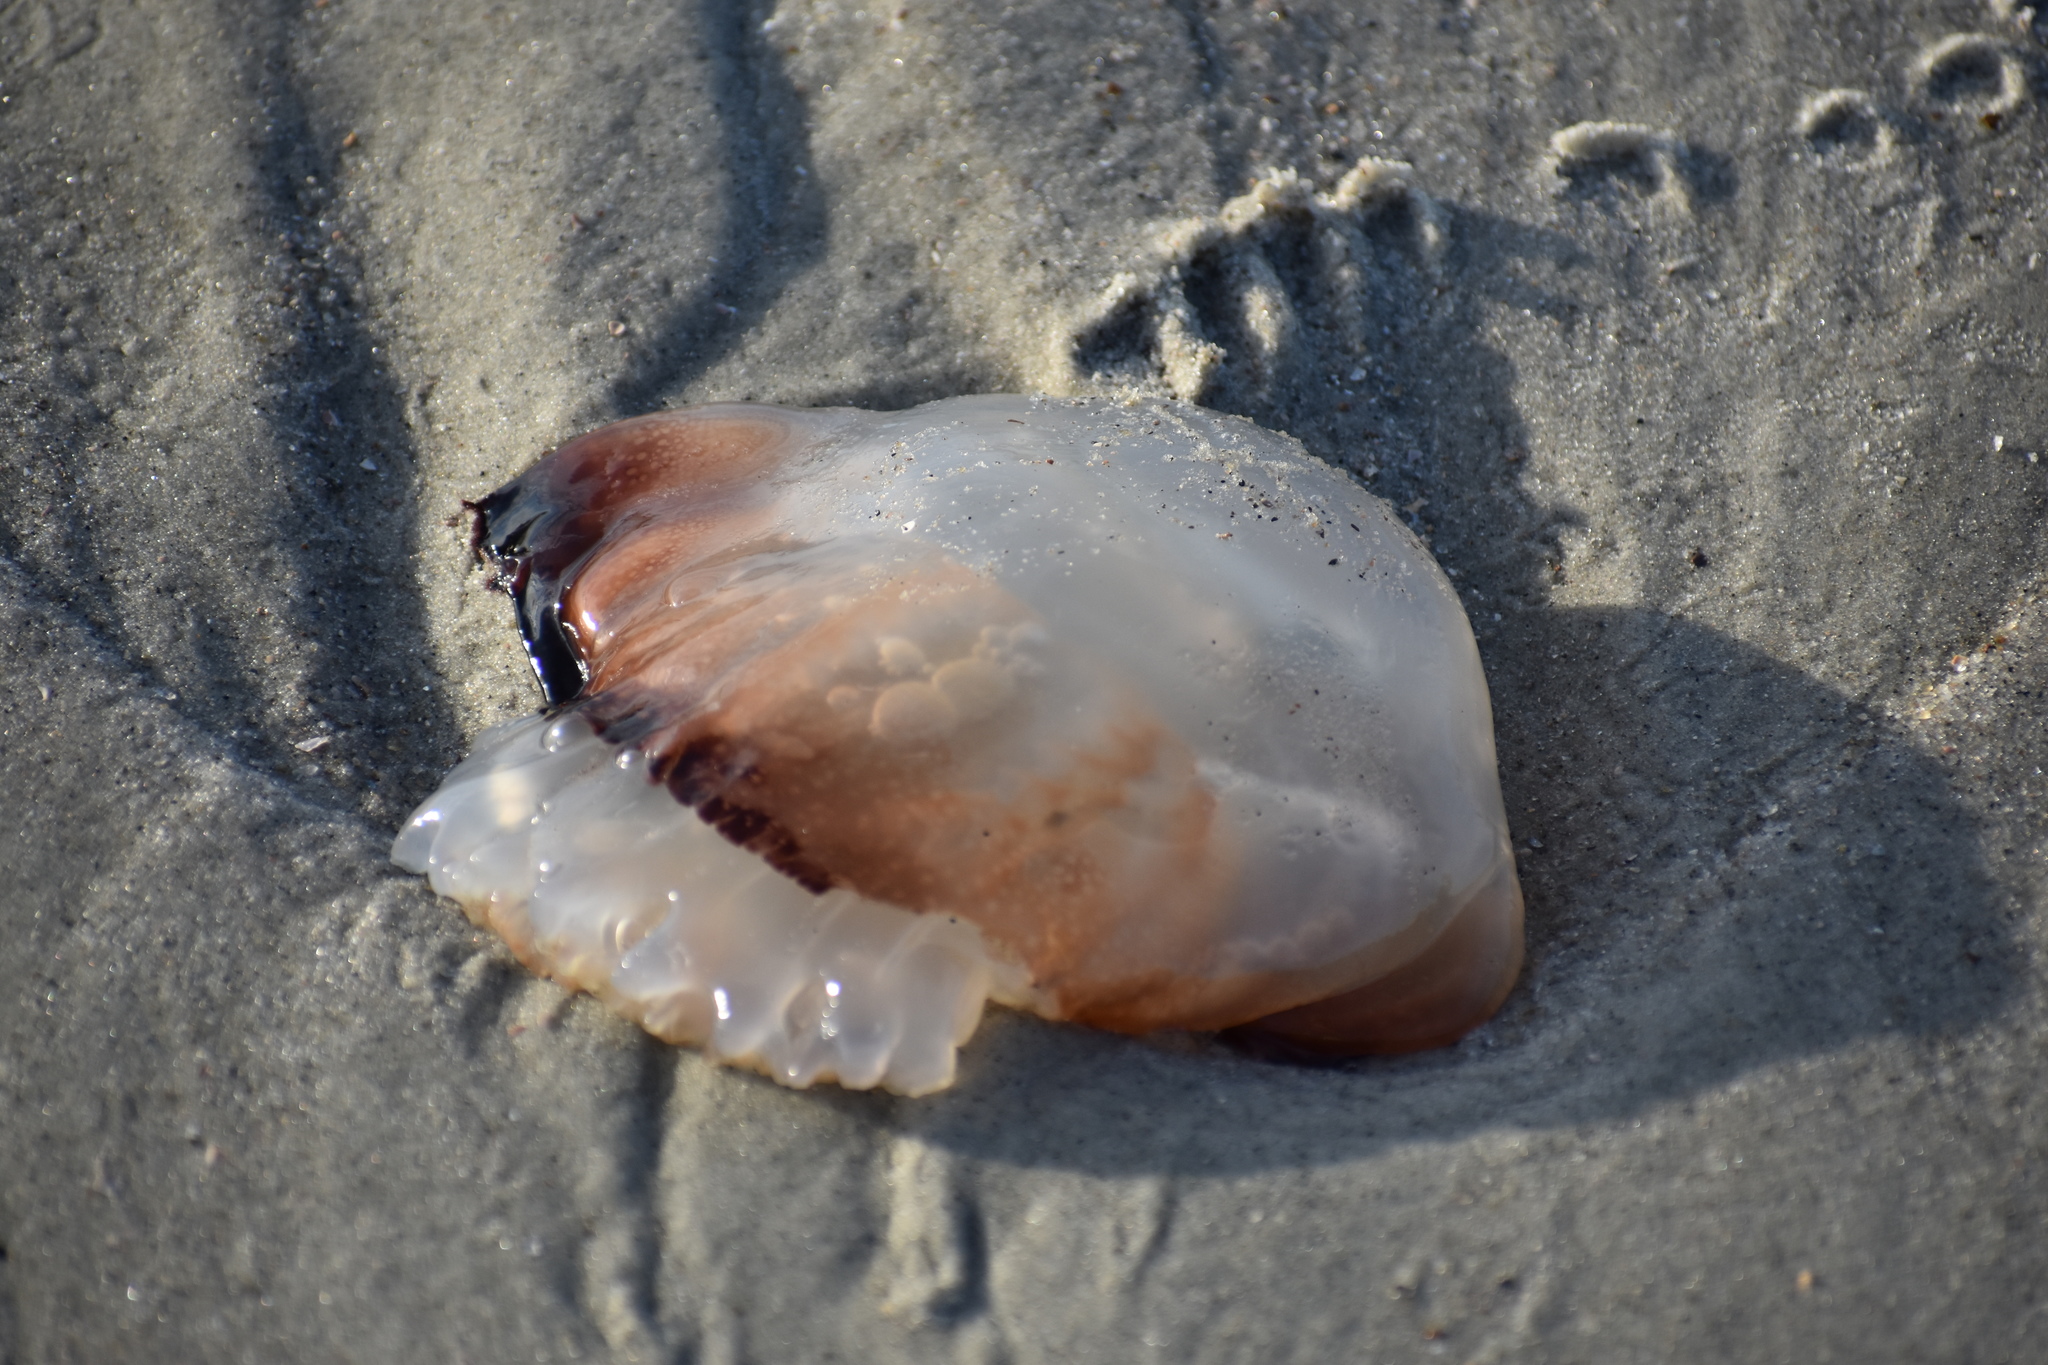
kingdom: Animalia
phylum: Cnidaria
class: Scyphozoa
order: Rhizostomeae
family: Stomolophidae
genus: Stomolophus
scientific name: Stomolophus meleagris
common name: Cabbagehead
